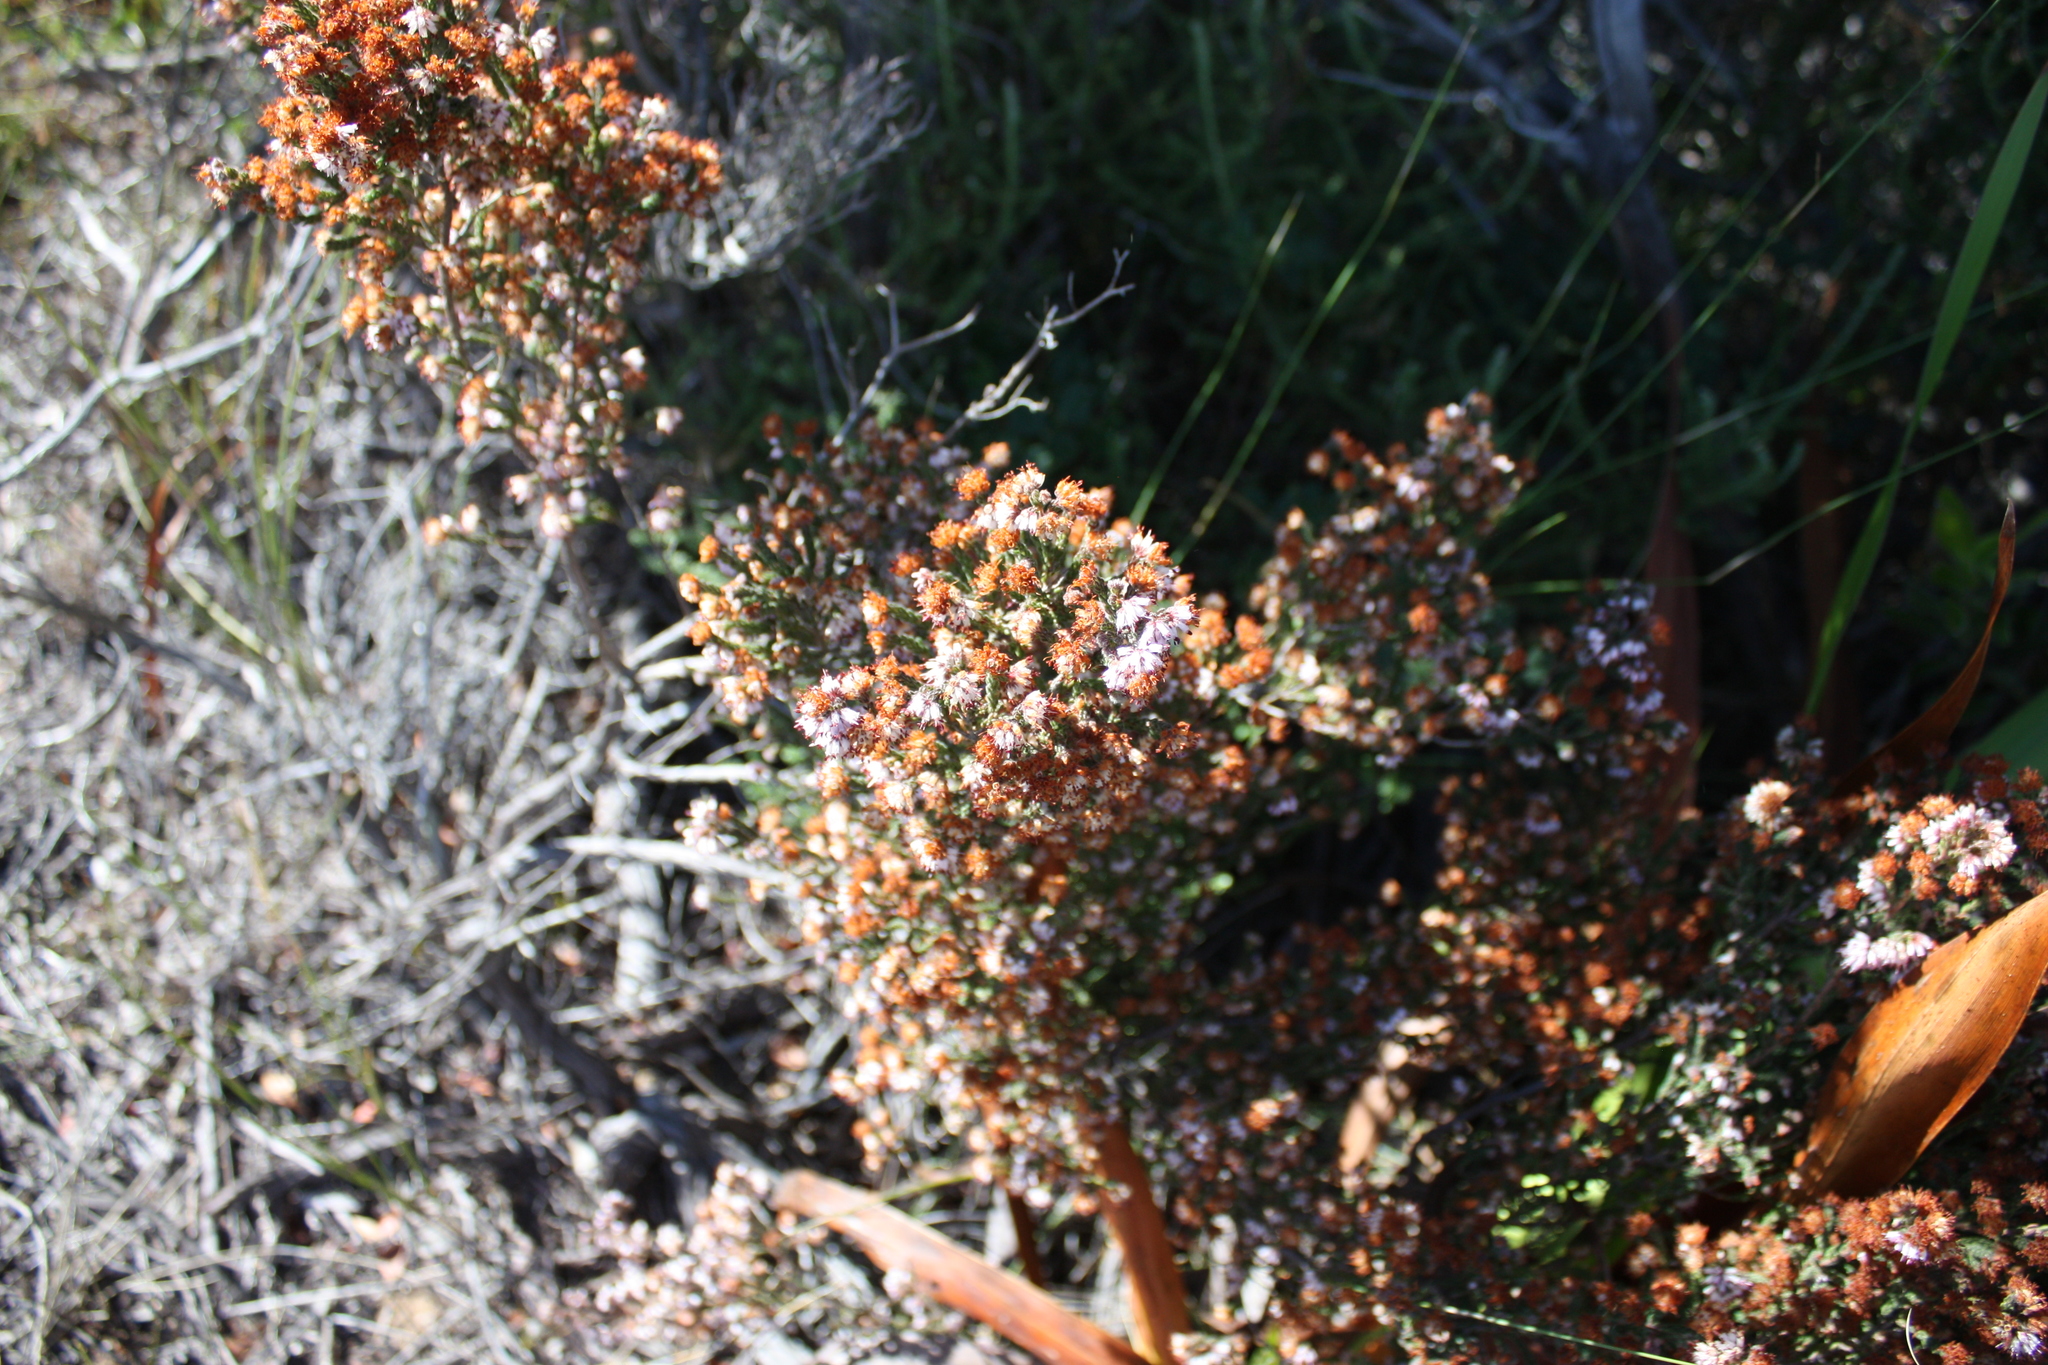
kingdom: Plantae
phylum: Tracheophyta
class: Magnoliopsida
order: Ericales
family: Ericaceae
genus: Erica
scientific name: Erica ericoides
